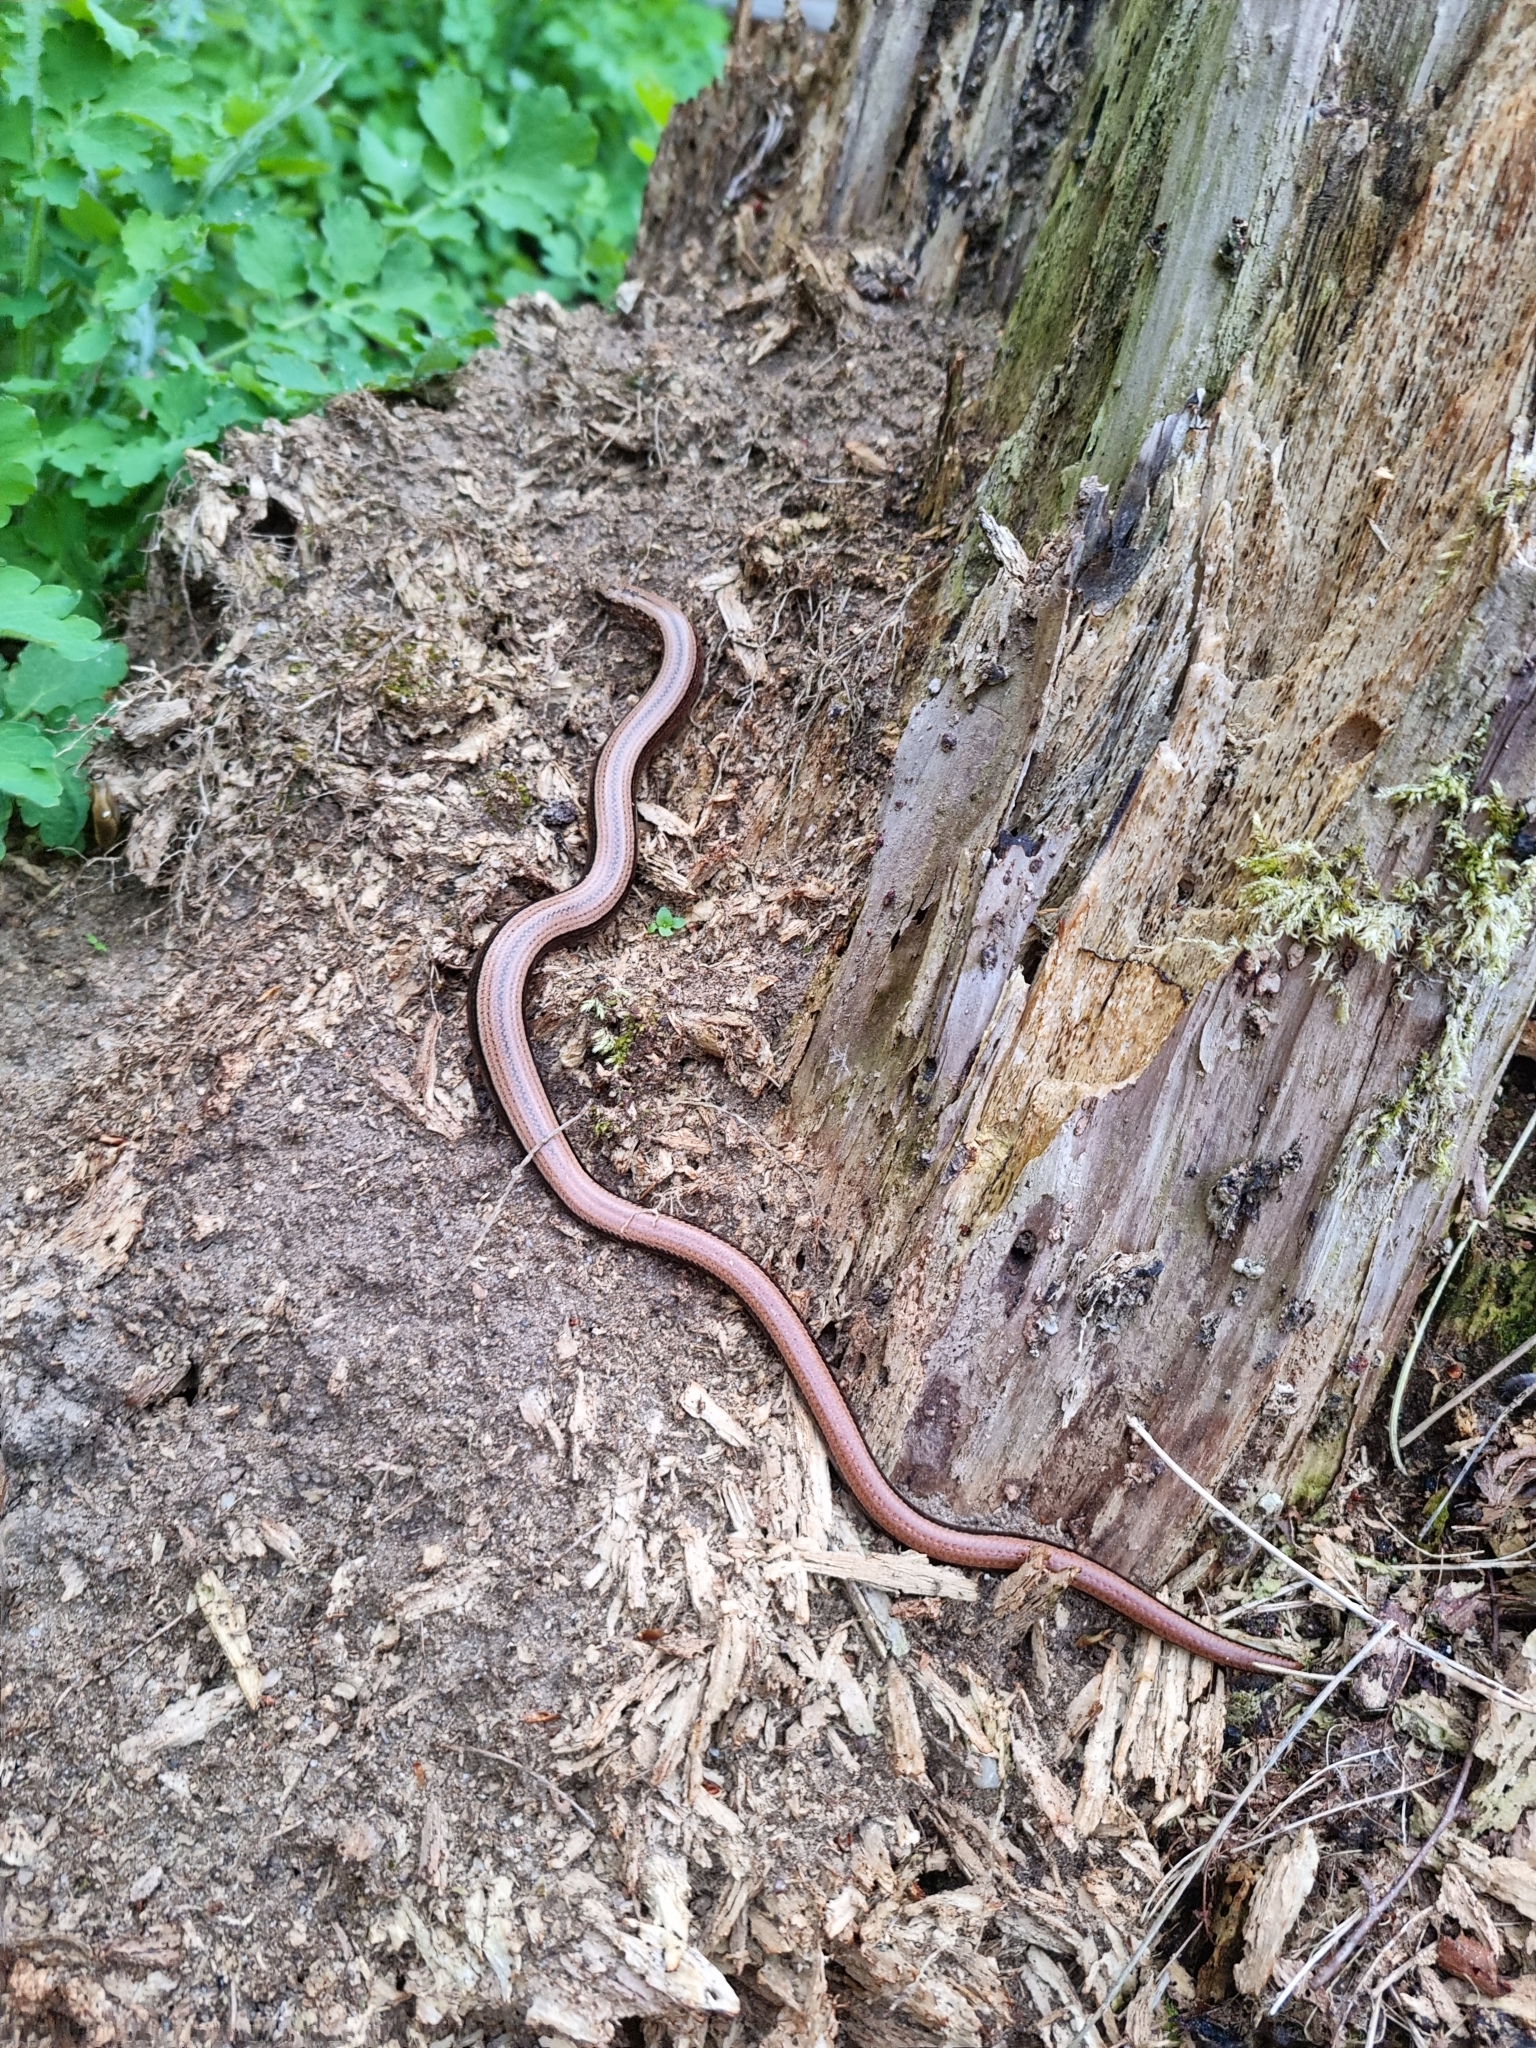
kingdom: Animalia
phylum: Chordata
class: Squamata
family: Anguidae
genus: Anguis
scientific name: Anguis fragilis
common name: Slow worm
